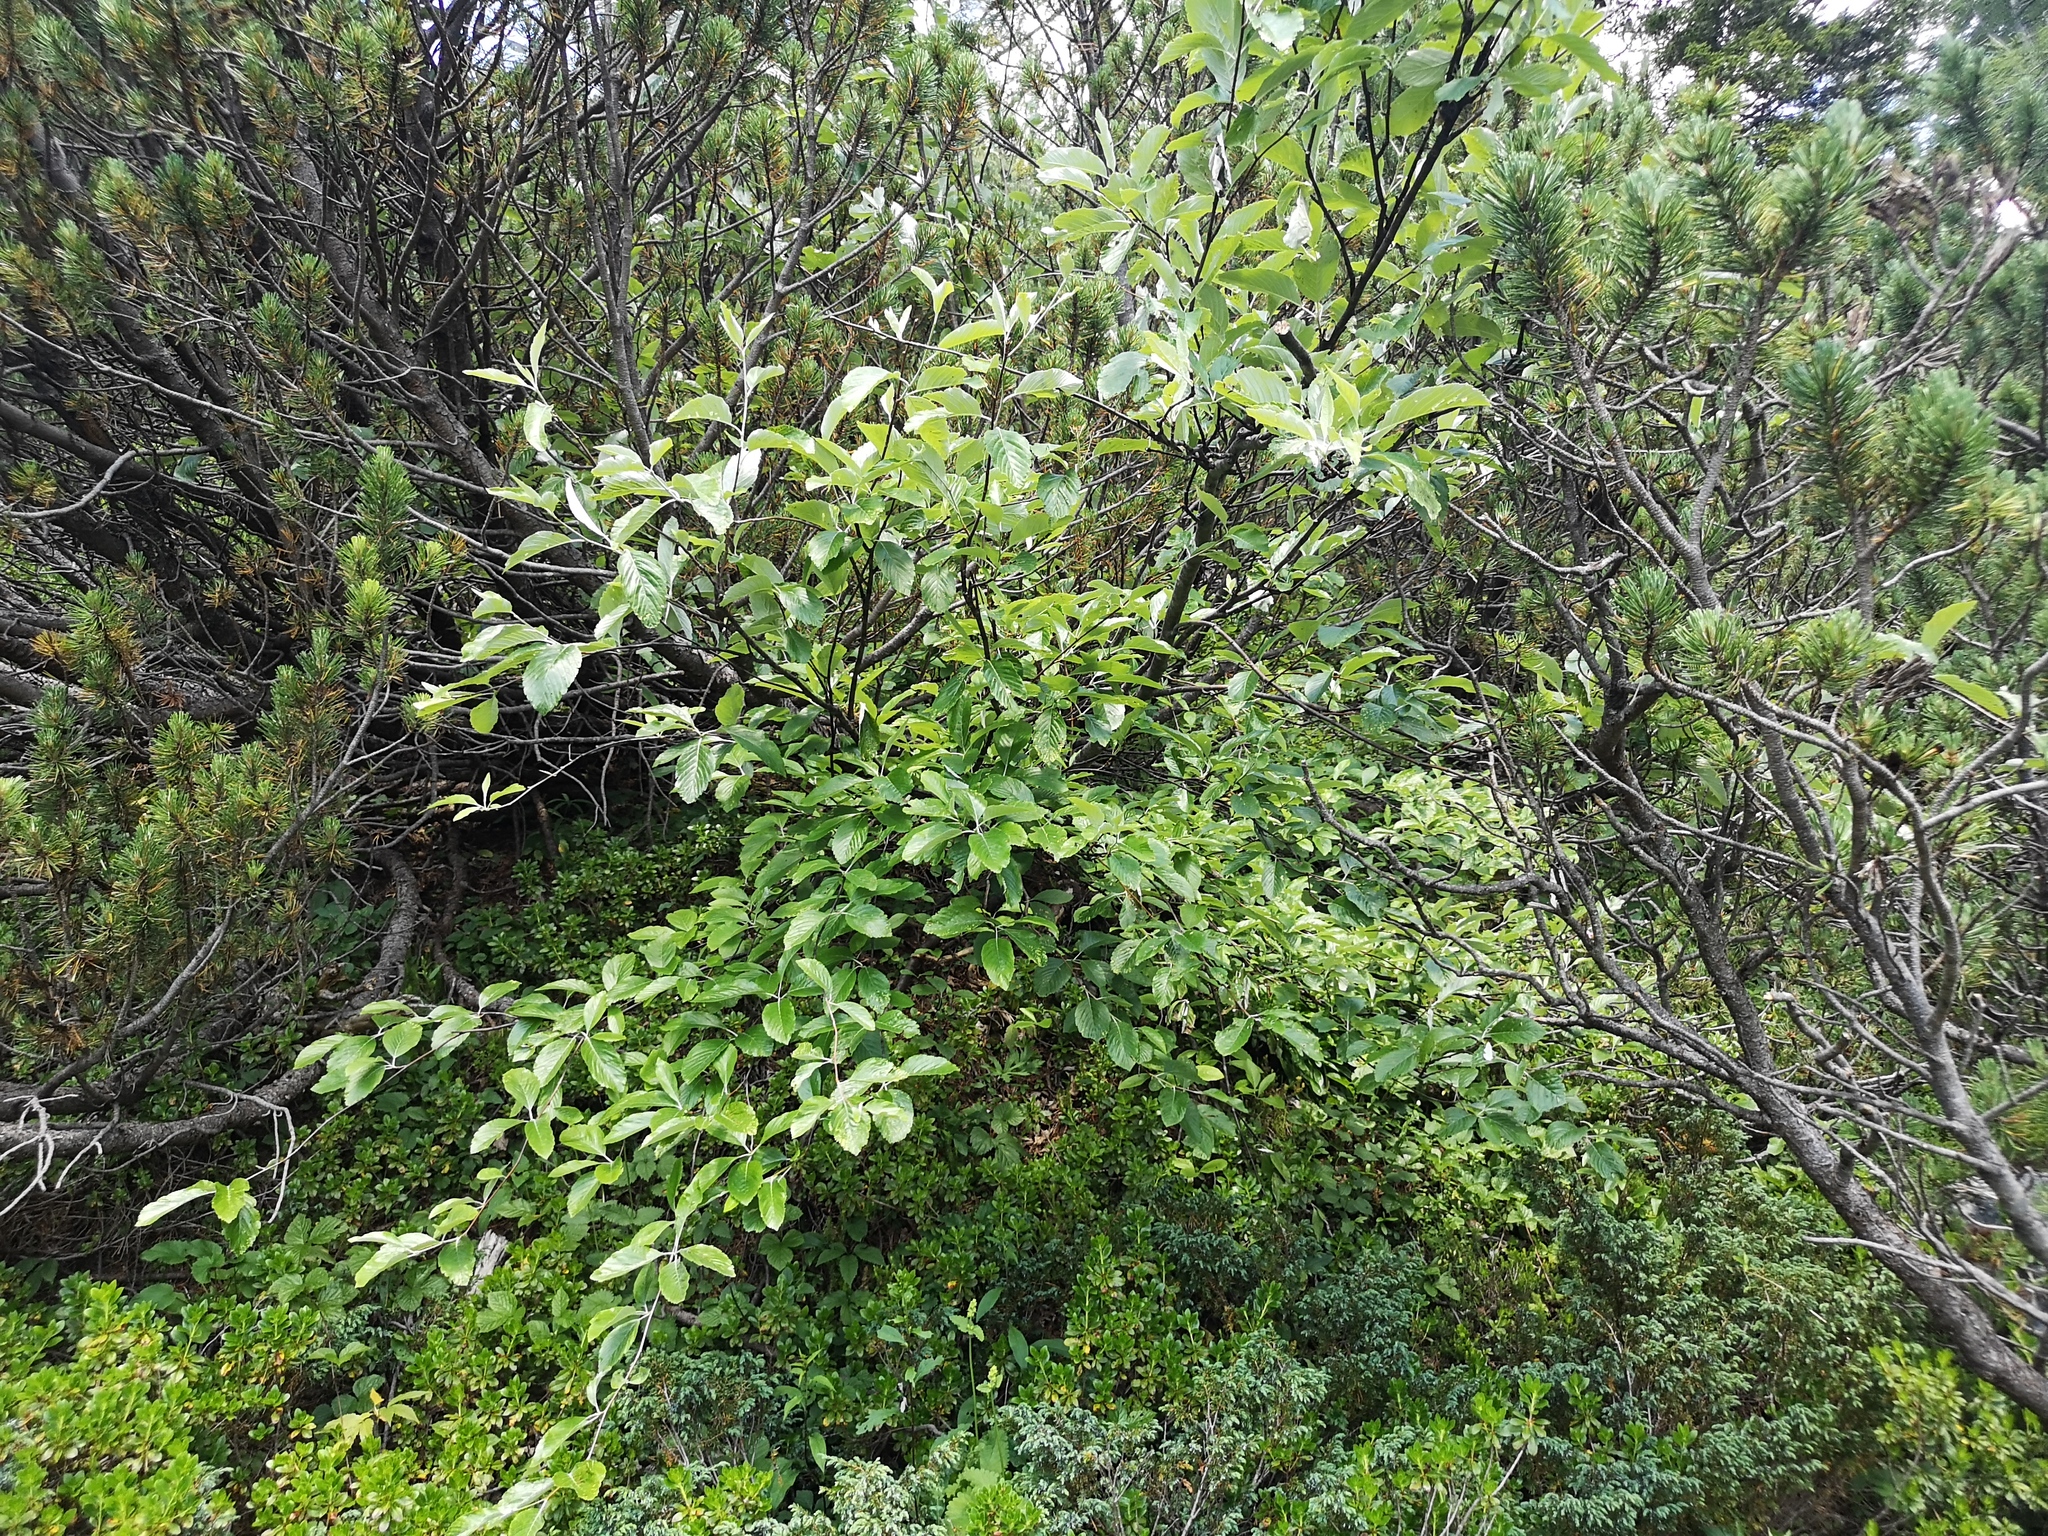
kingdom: Plantae
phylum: Tracheophyta
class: Magnoliopsida
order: Rosales
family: Rosaceae
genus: Aria
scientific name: Aria edulis
